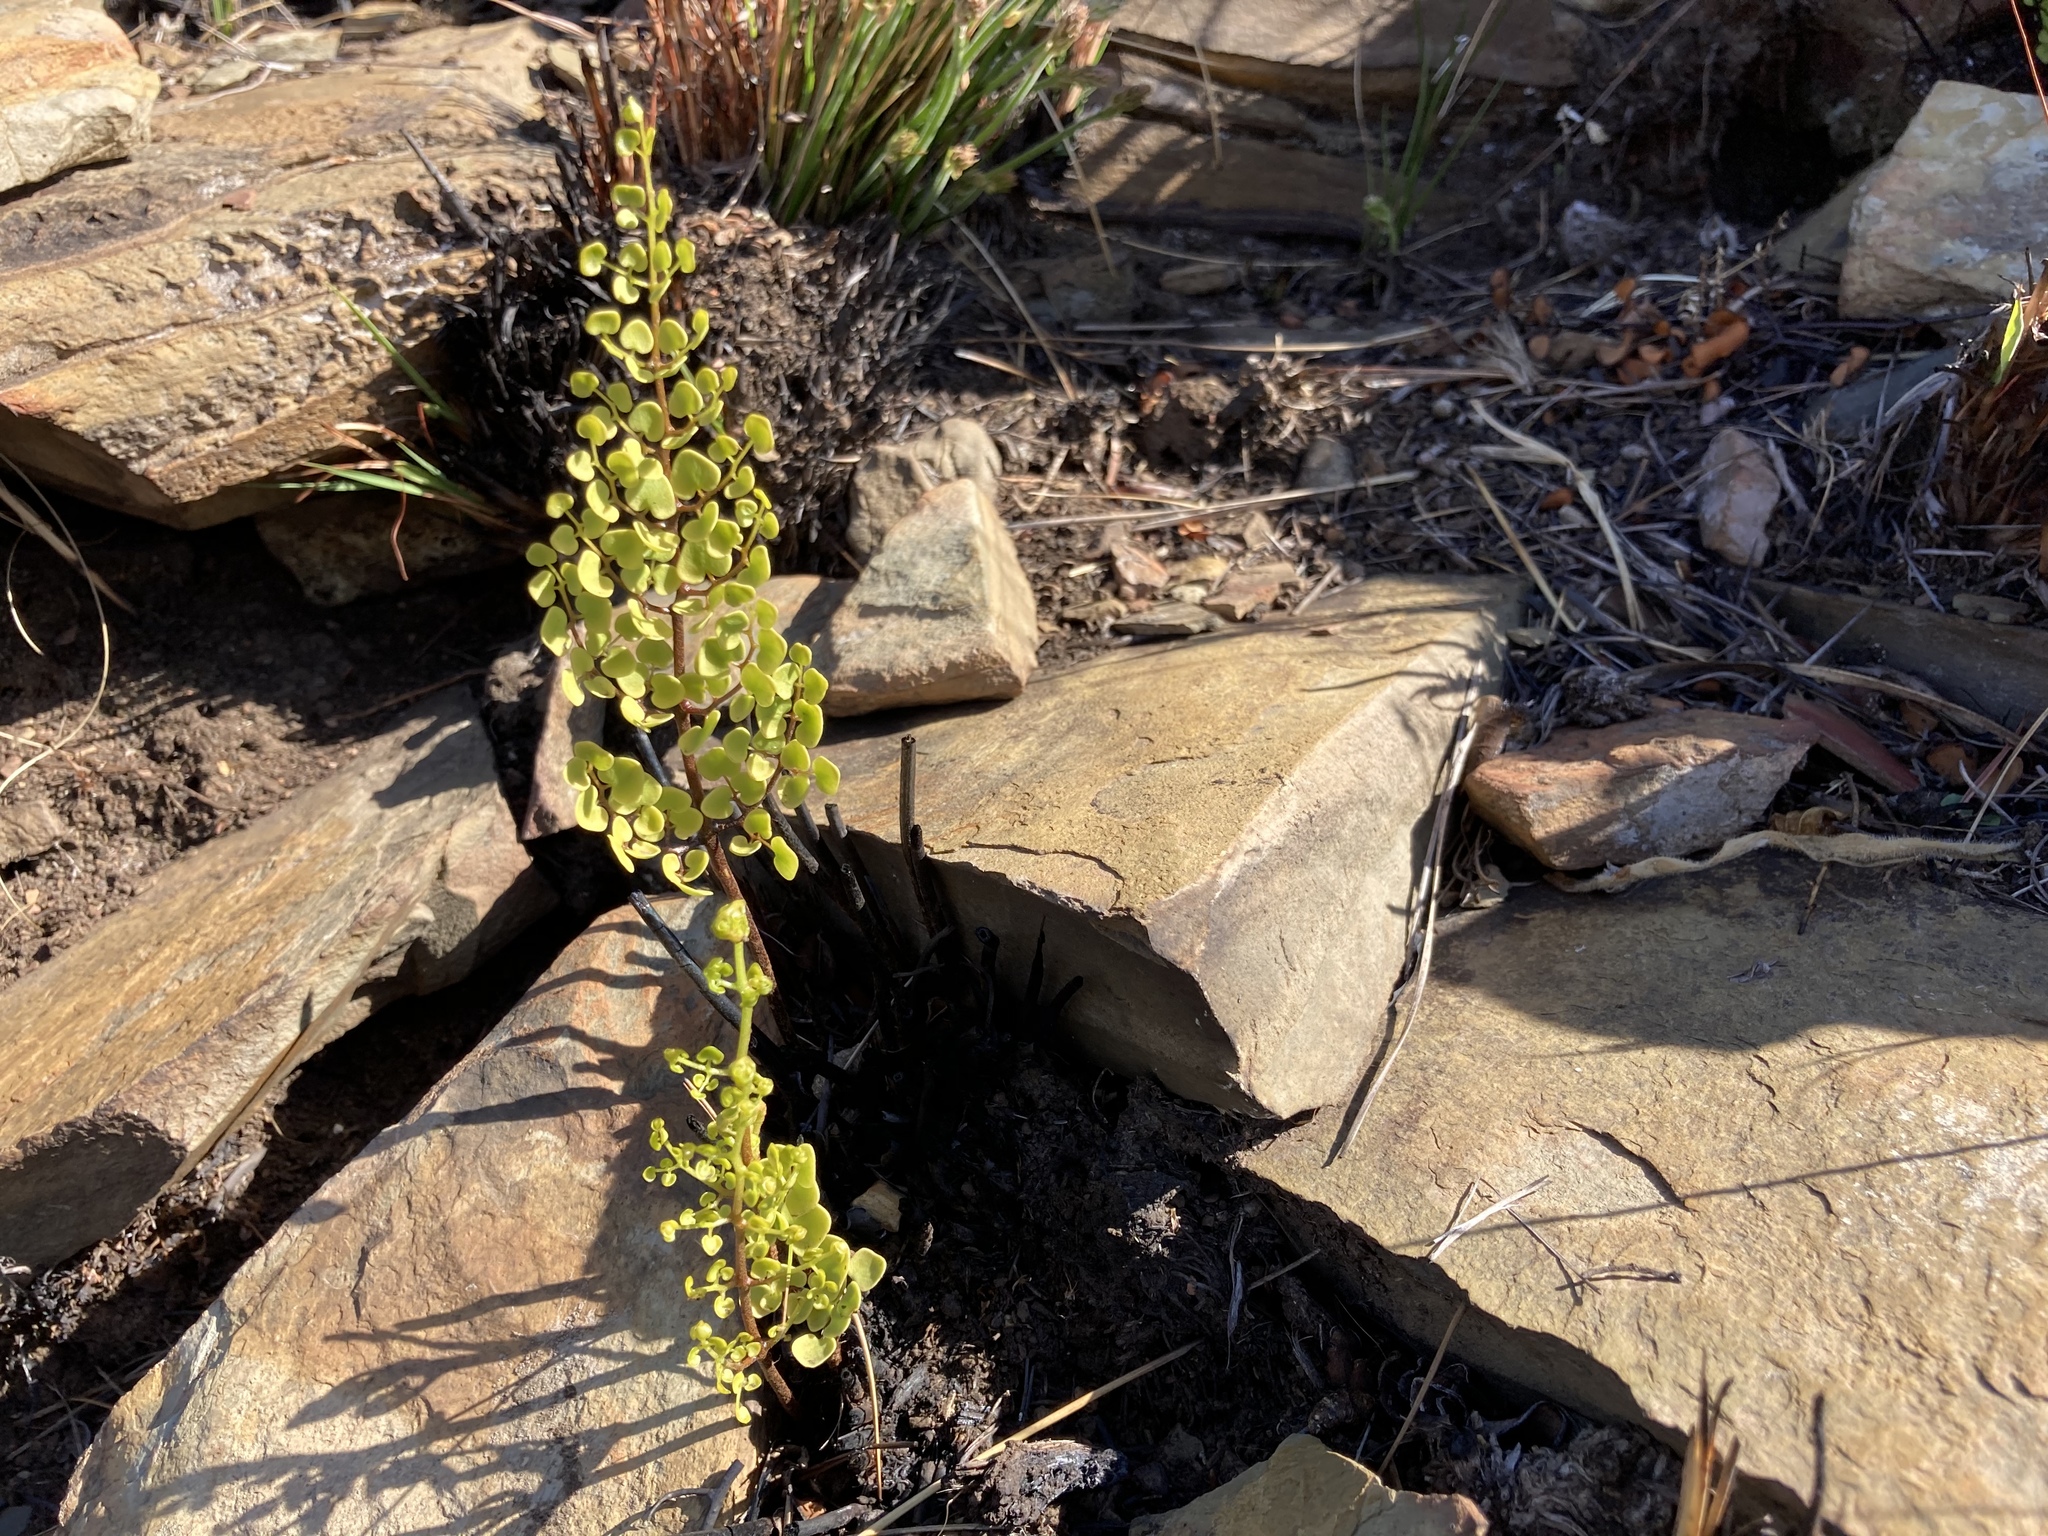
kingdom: Plantae
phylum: Tracheophyta
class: Polypodiopsida
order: Polypodiales
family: Pteridaceae
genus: Pellaea
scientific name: Pellaea calomelanos
